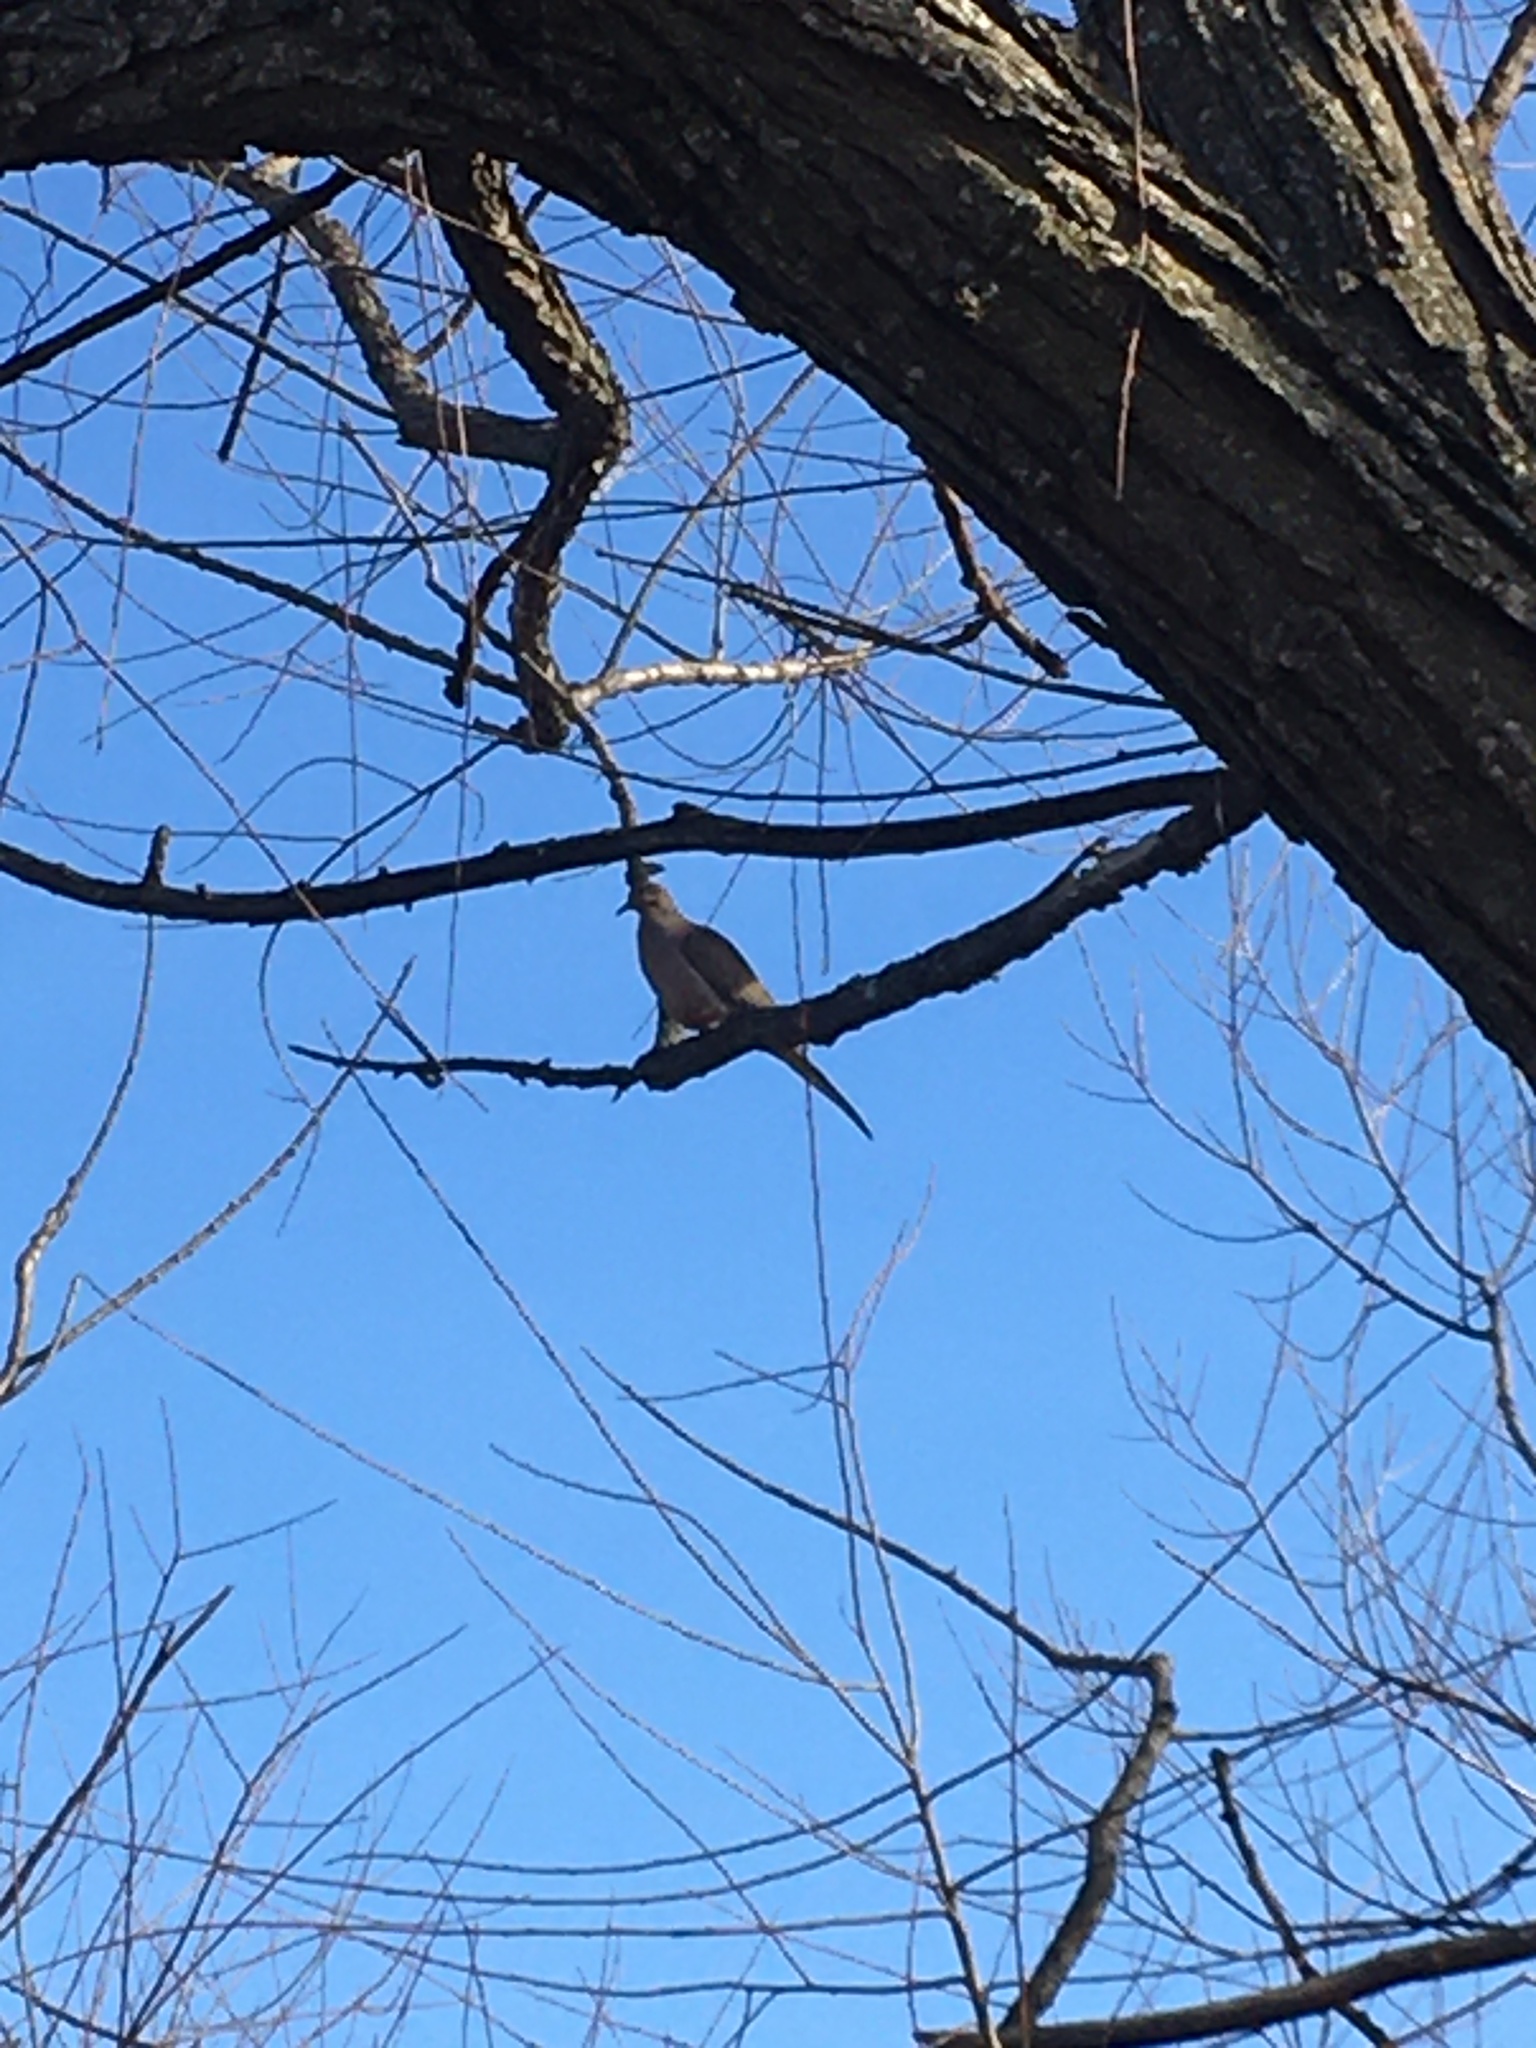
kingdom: Animalia
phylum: Chordata
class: Aves
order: Columbiformes
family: Columbidae
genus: Zenaida
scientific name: Zenaida macroura
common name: Mourning dove
